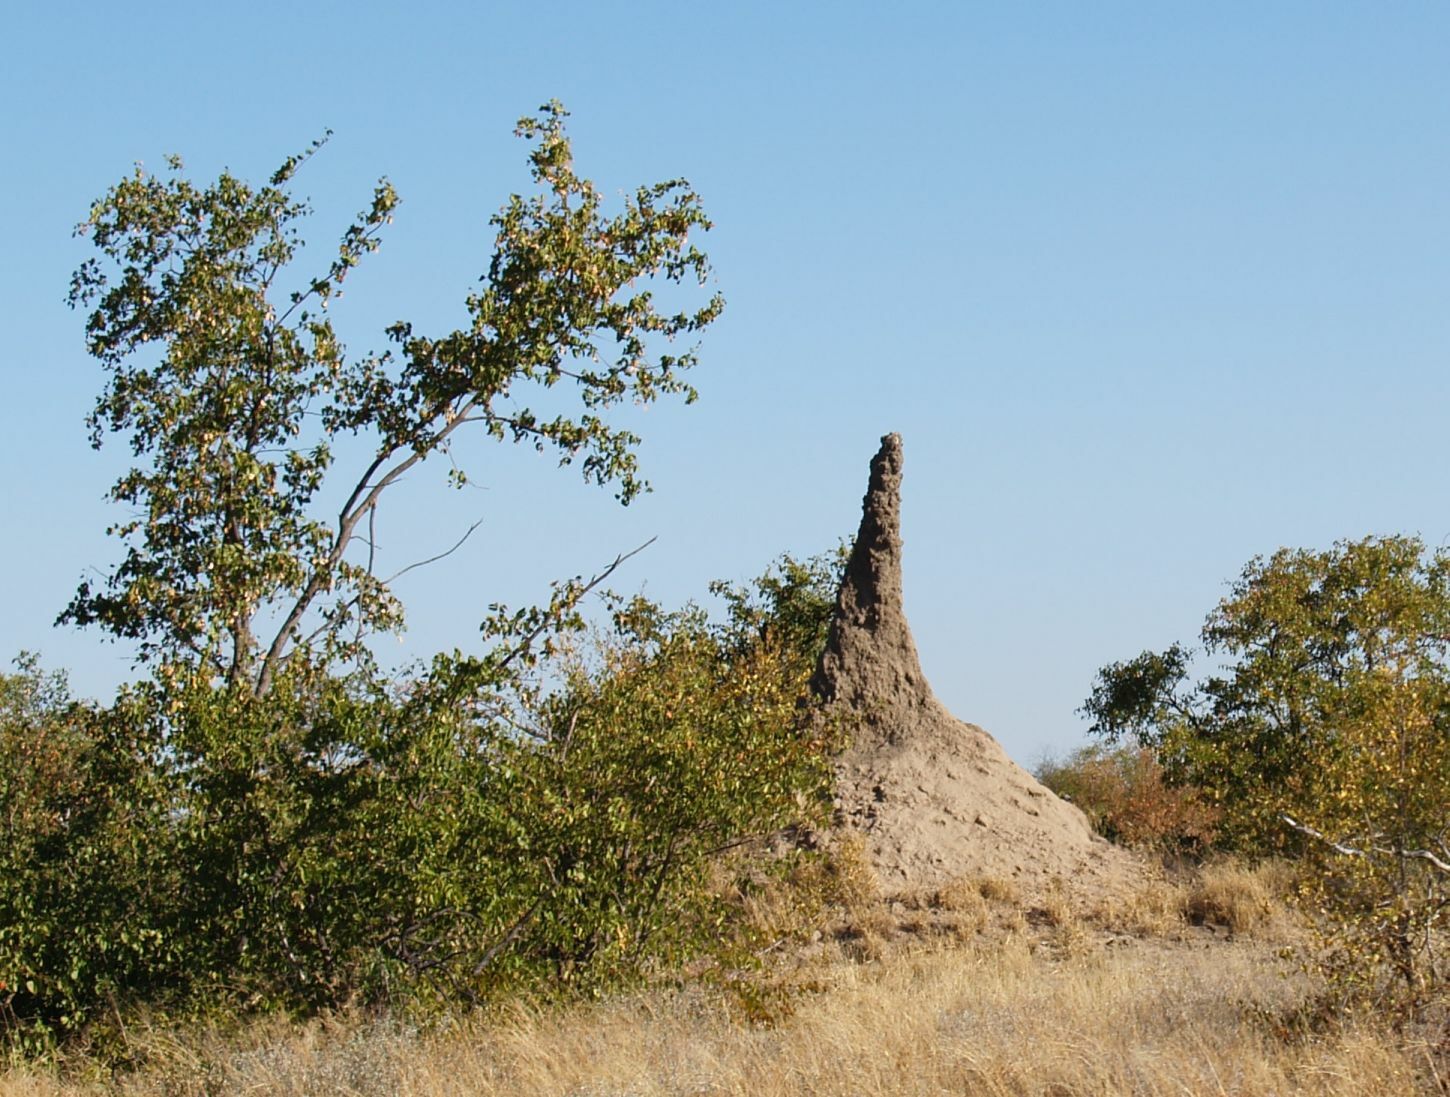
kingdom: Animalia
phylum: Arthropoda
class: Insecta
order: Blattodea
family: Termitidae
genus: Macrotermes
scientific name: Macrotermes michaelseni
